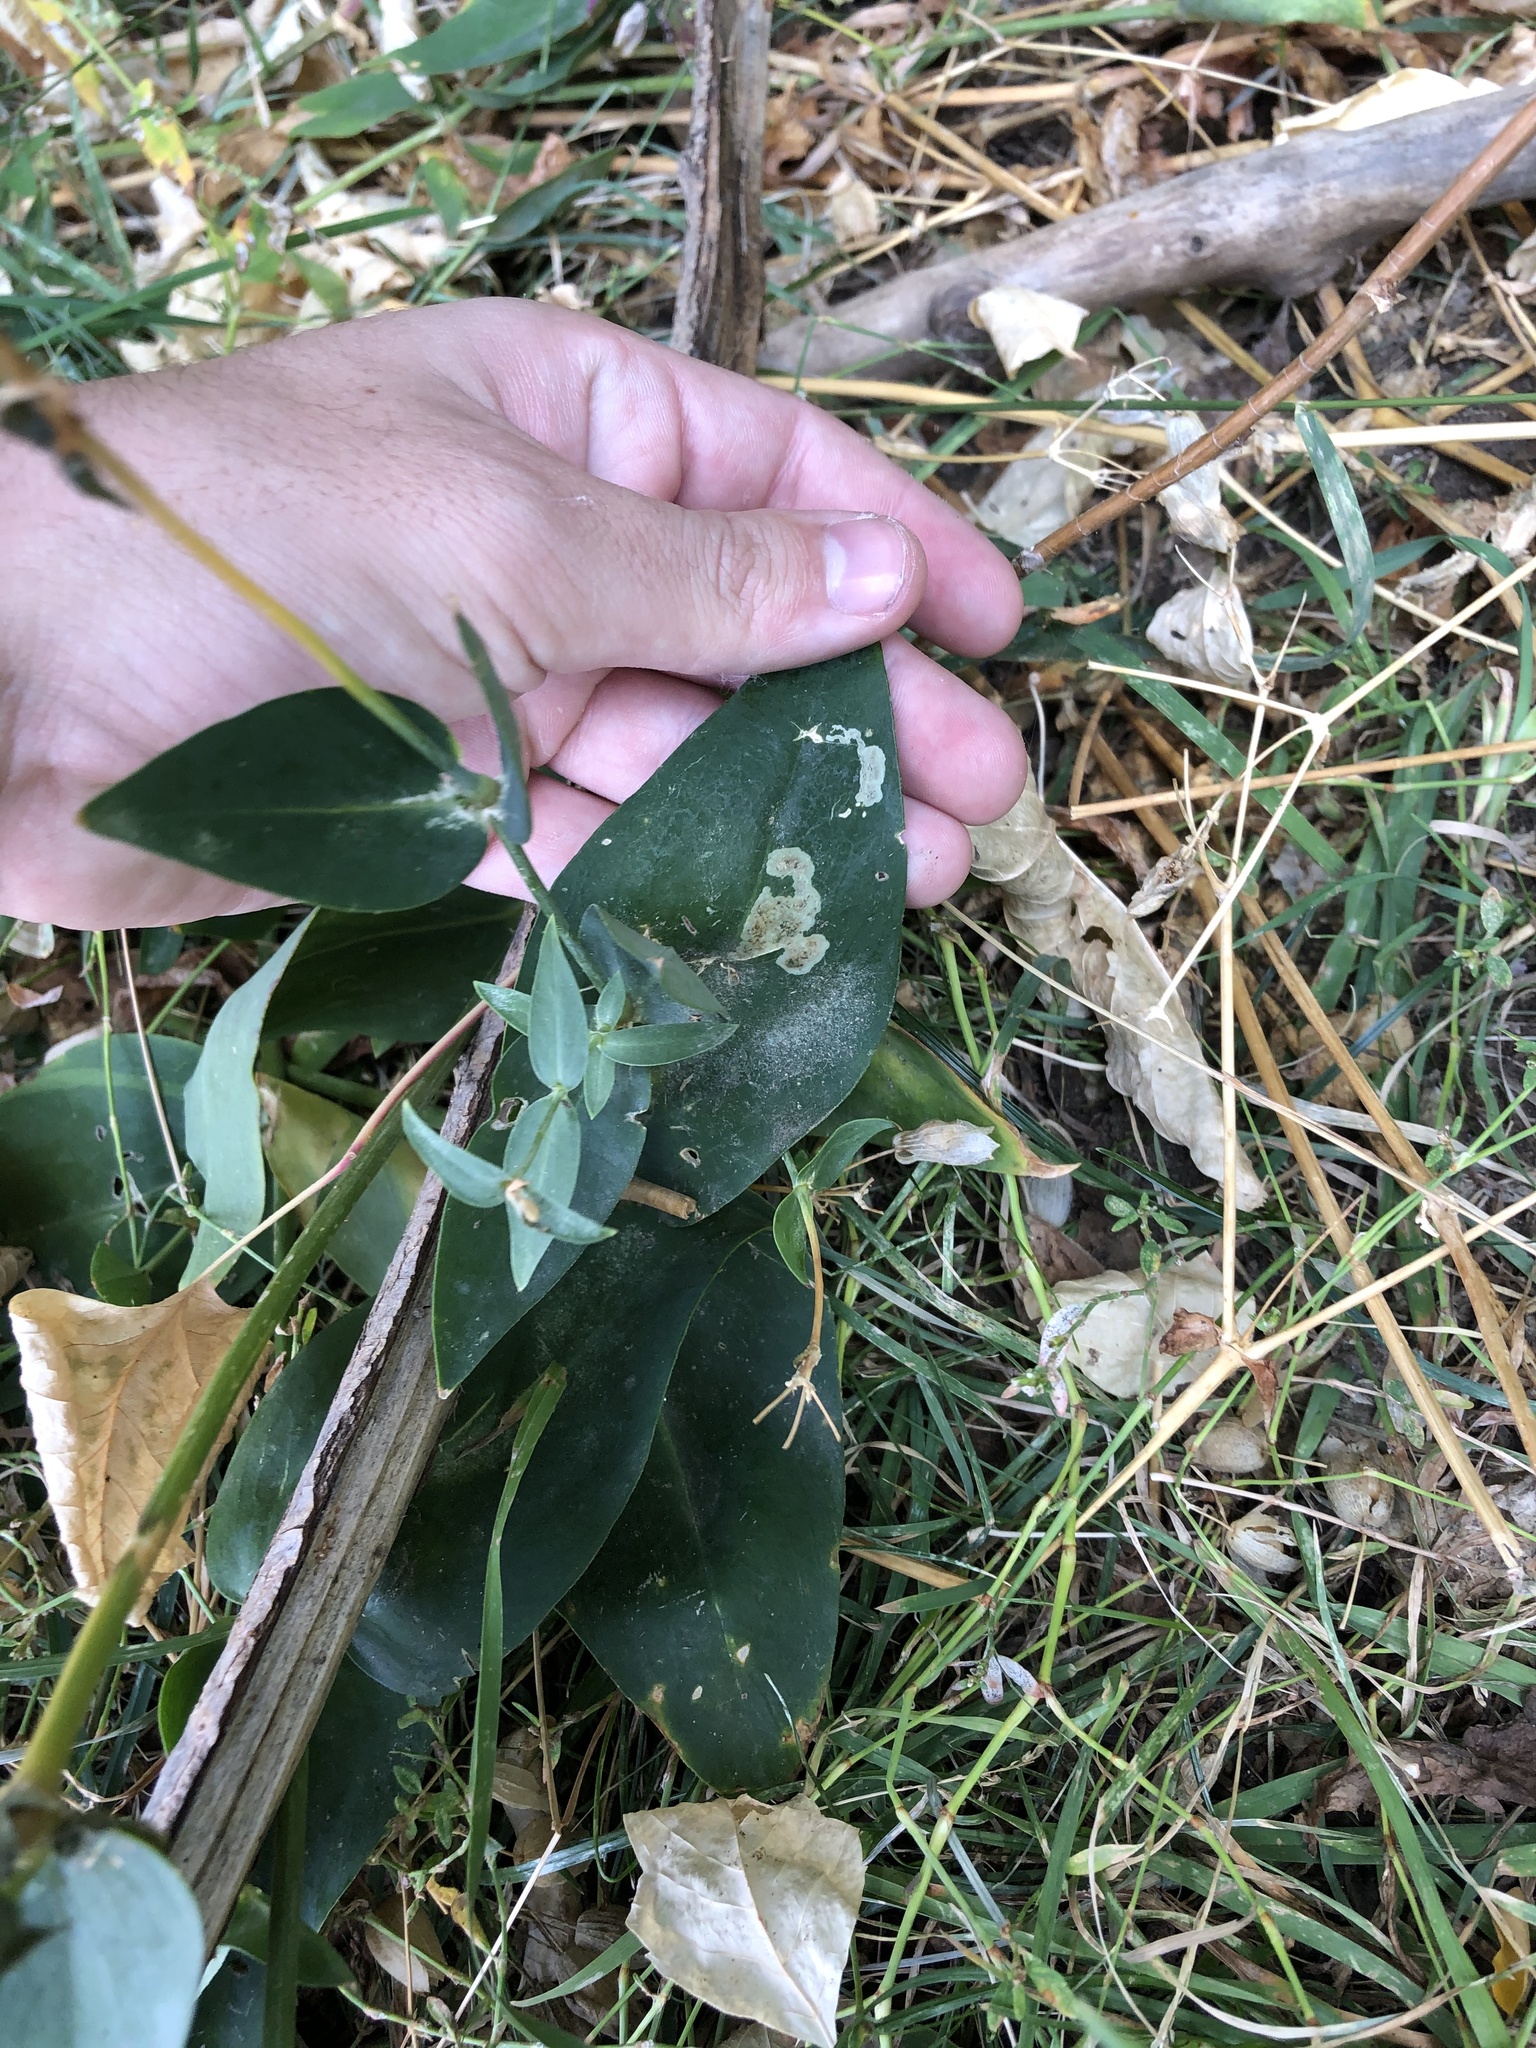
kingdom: Plantae
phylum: Tracheophyta
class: Magnoliopsida
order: Caryophyllales
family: Caryophyllaceae
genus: Silene
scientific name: Silene latifolia
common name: White campion
